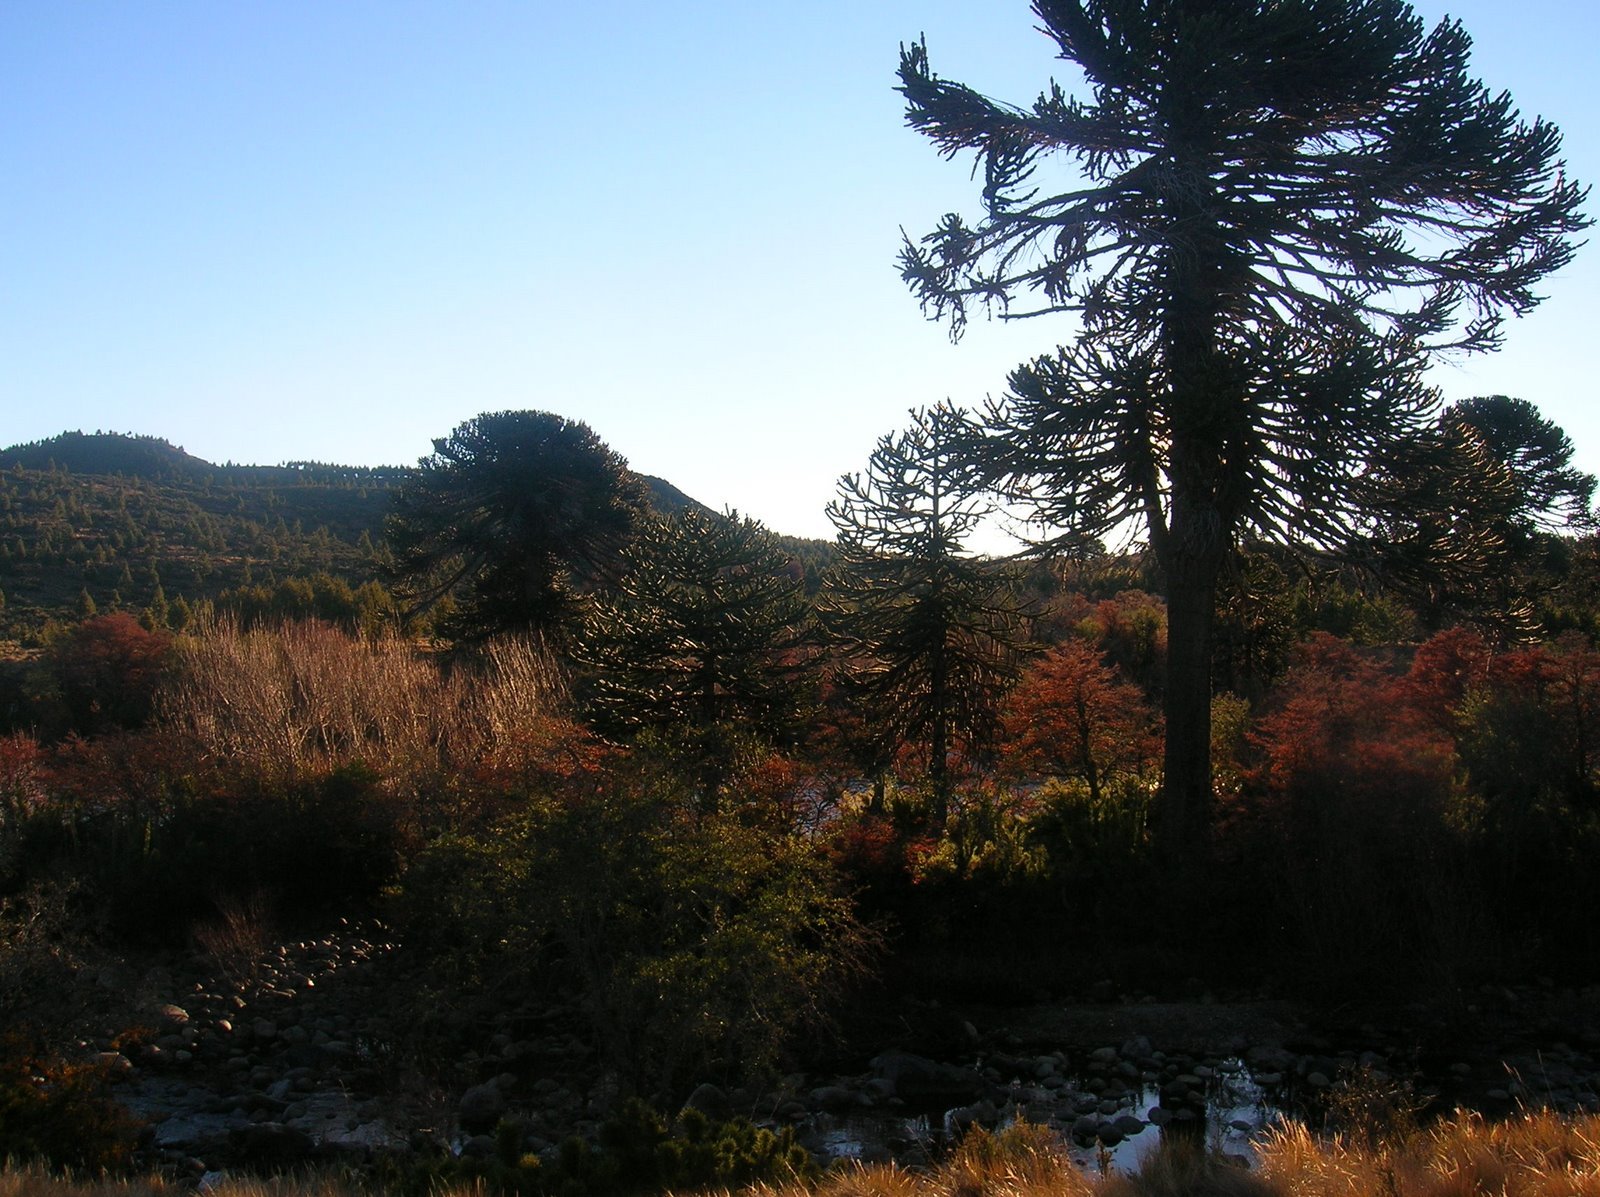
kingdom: Plantae
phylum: Tracheophyta
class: Pinopsida
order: Pinales
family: Araucariaceae
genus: Araucaria
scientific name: Araucaria araucana
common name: Monkey-puzzle
